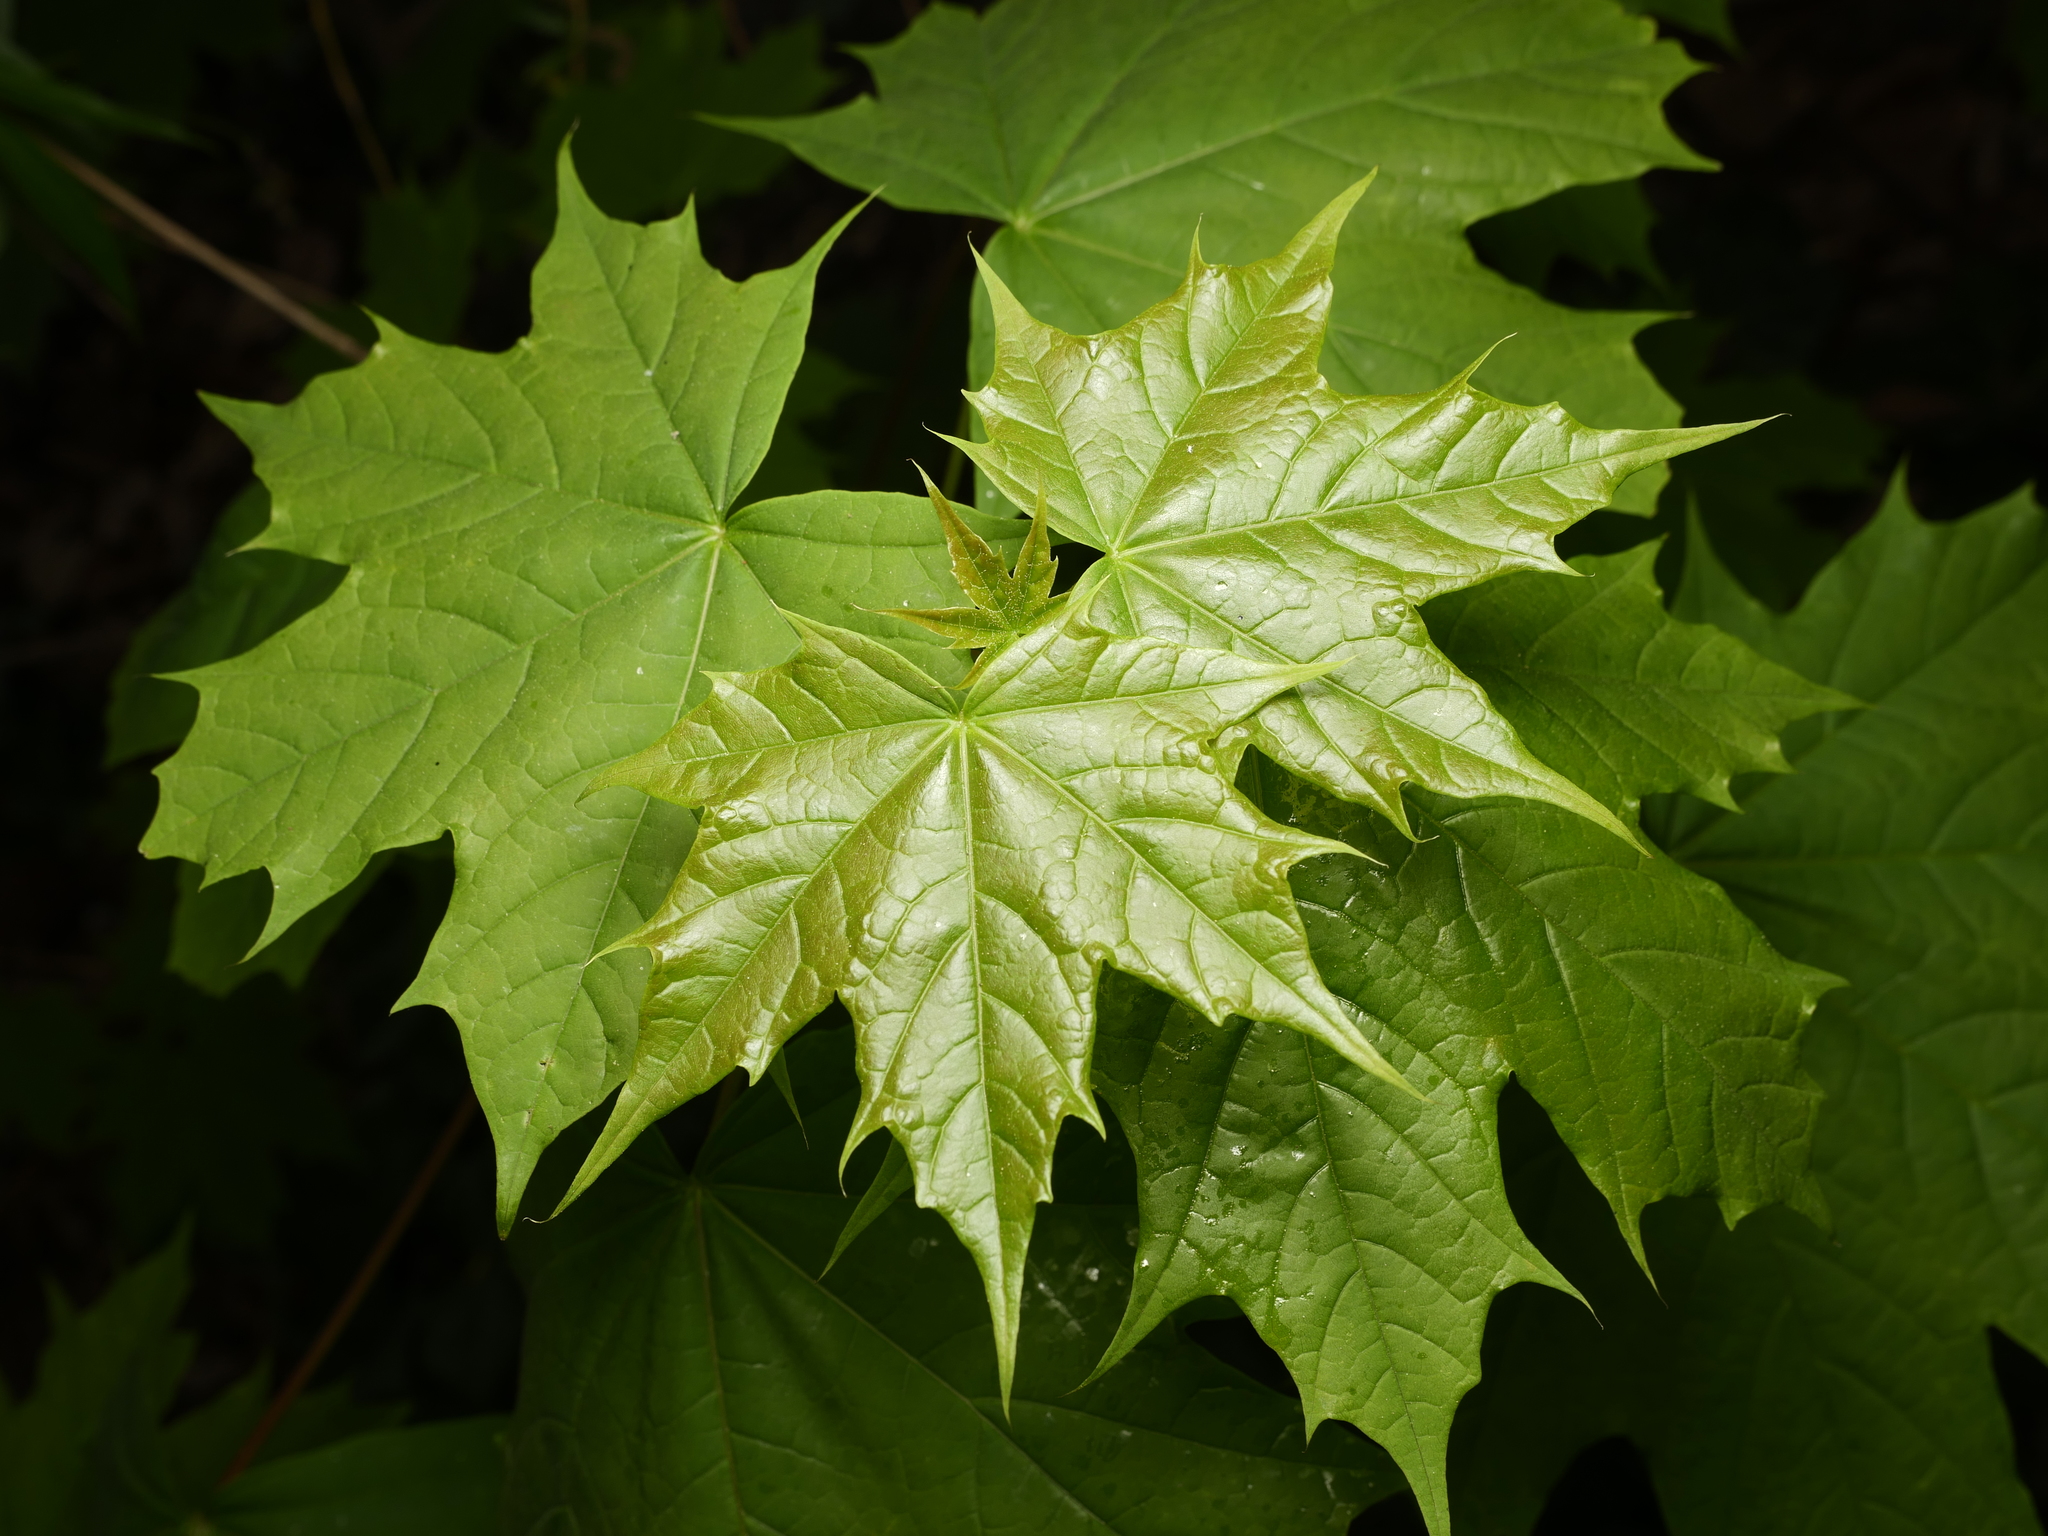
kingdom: Plantae
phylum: Tracheophyta
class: Magnoliopsida
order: Sapindales
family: Sapindaceae
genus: Acer
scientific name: Acer platanoides
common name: Norway maple
